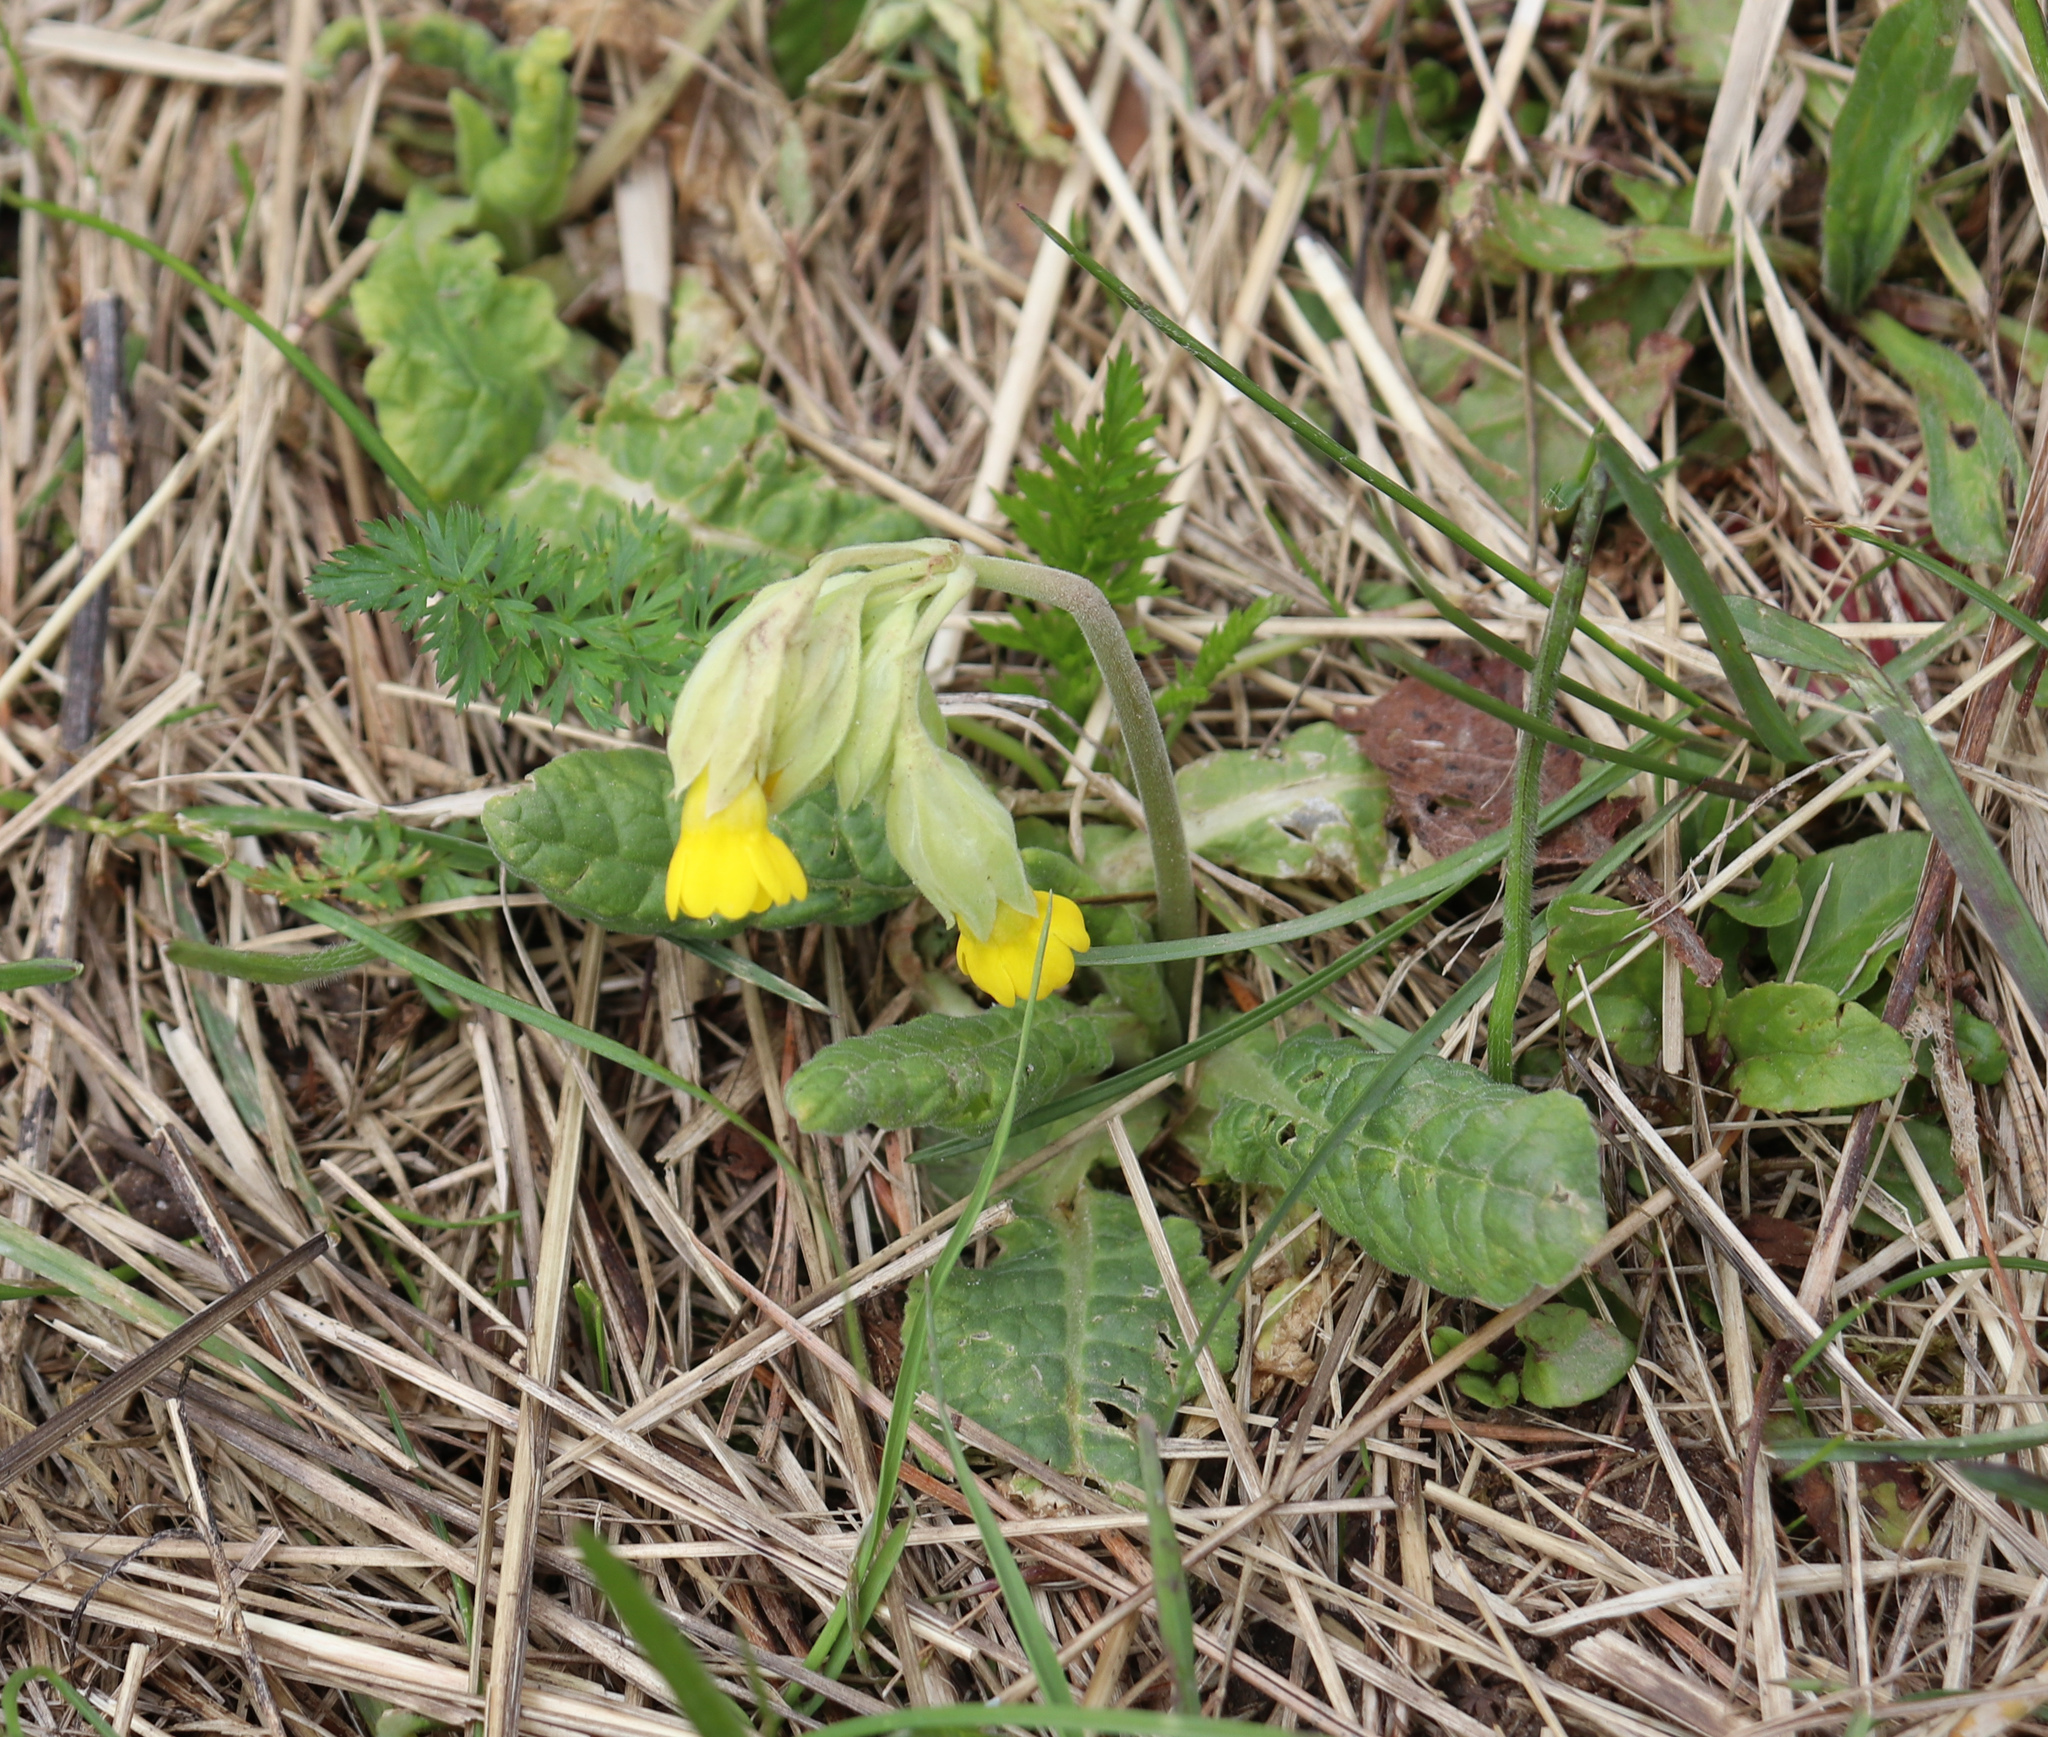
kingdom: Plantae
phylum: Tracheophyta
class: Magnoliopsida
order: Ericales
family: Primulaceae
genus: Primula
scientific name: Primula veris
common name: Cowslip
